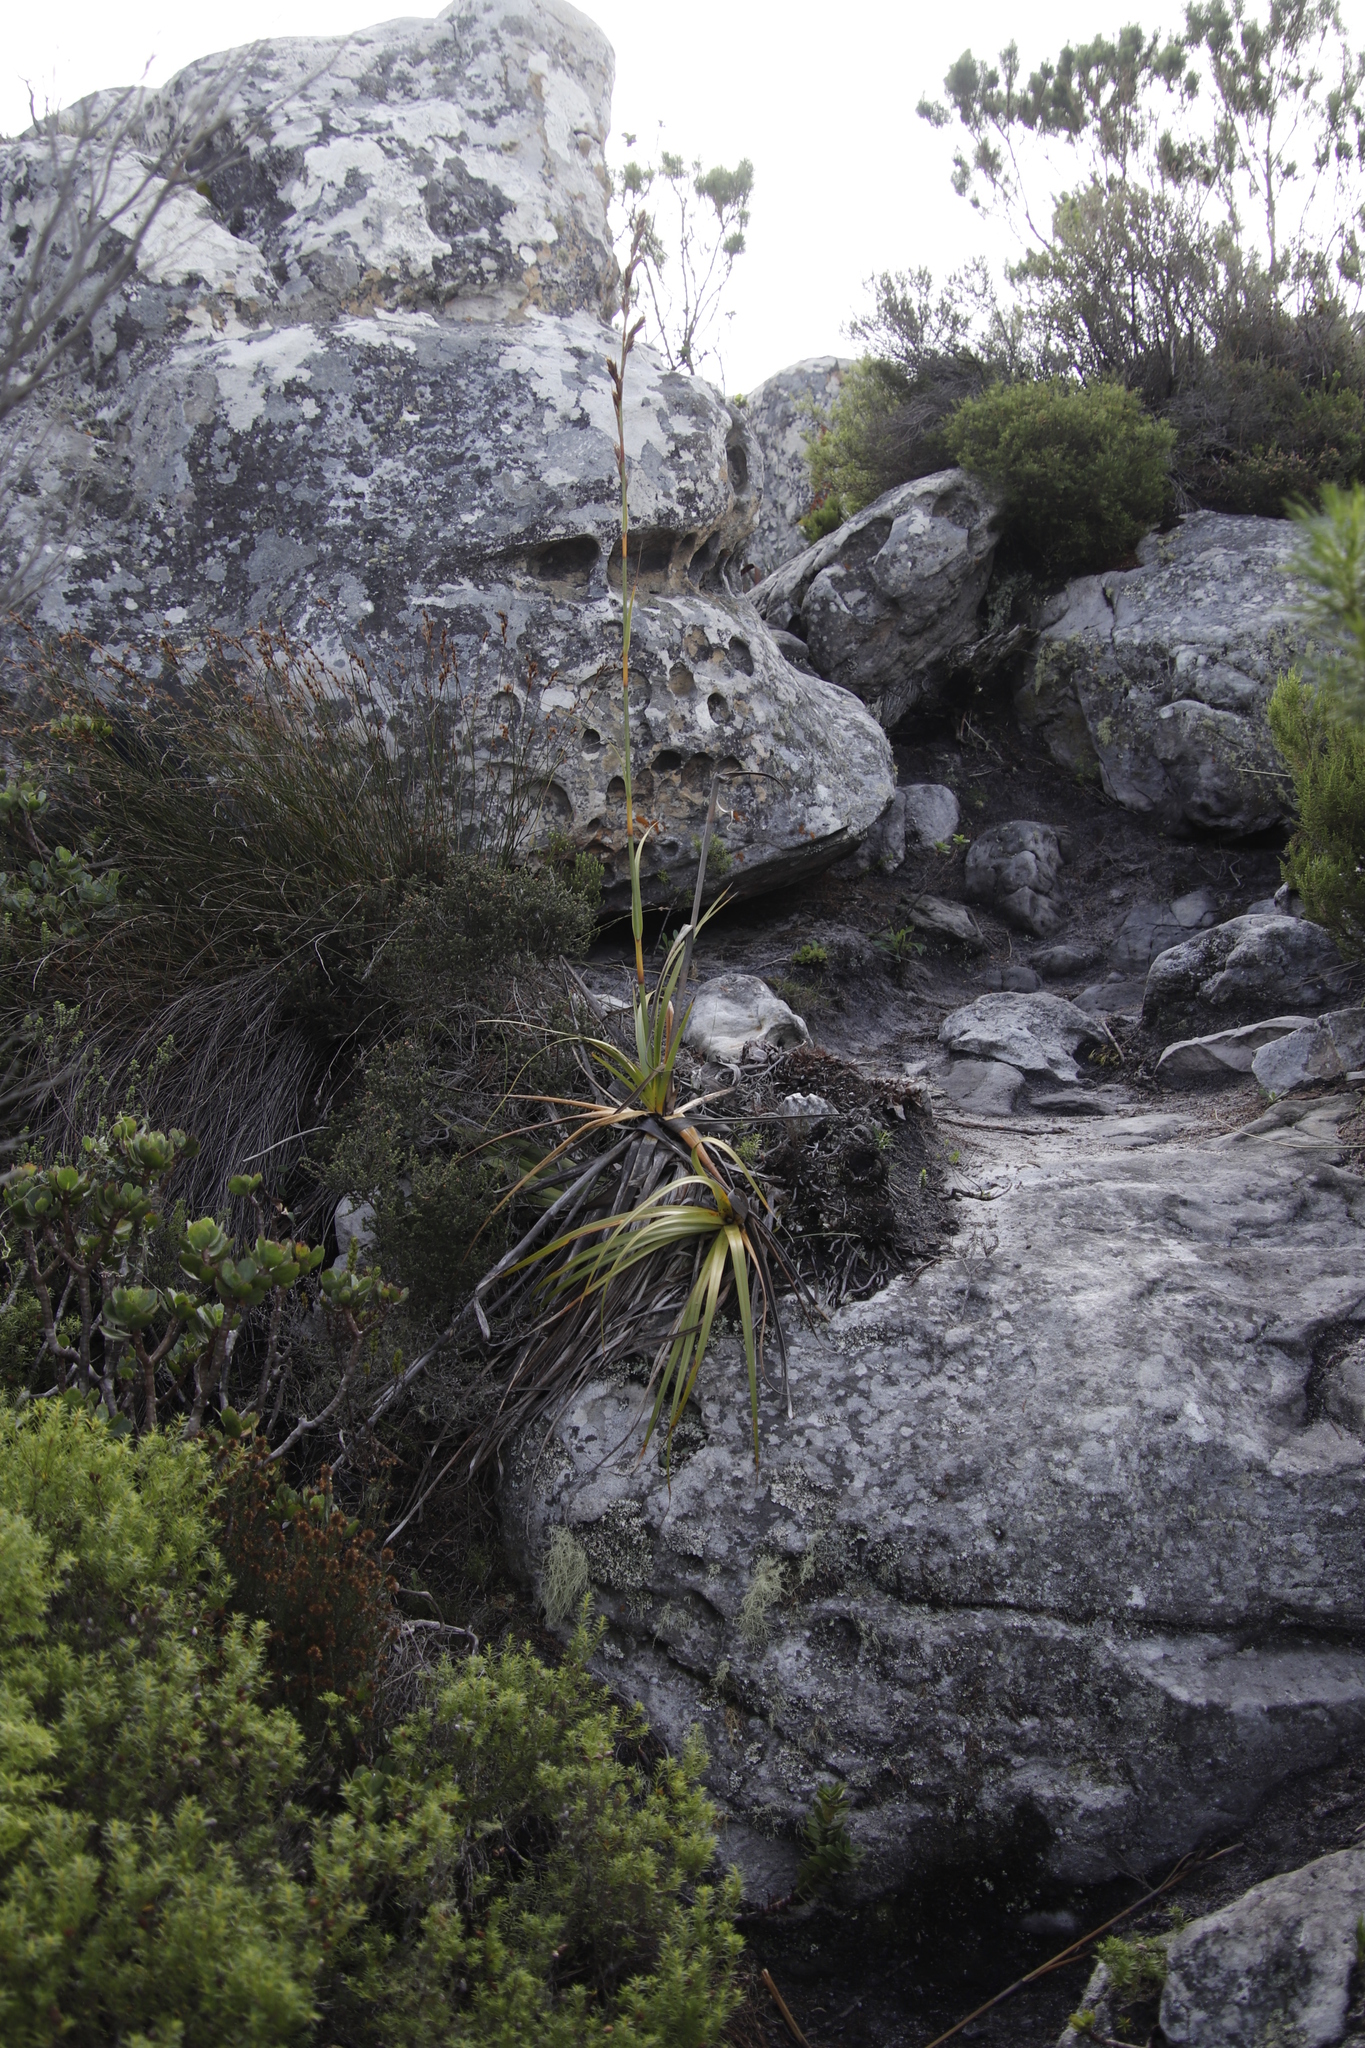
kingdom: Plantae
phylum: Tracheophyta
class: Liliopsida
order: Poales
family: Cyperaceae
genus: Tetraria
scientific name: Tetraria thermalis
